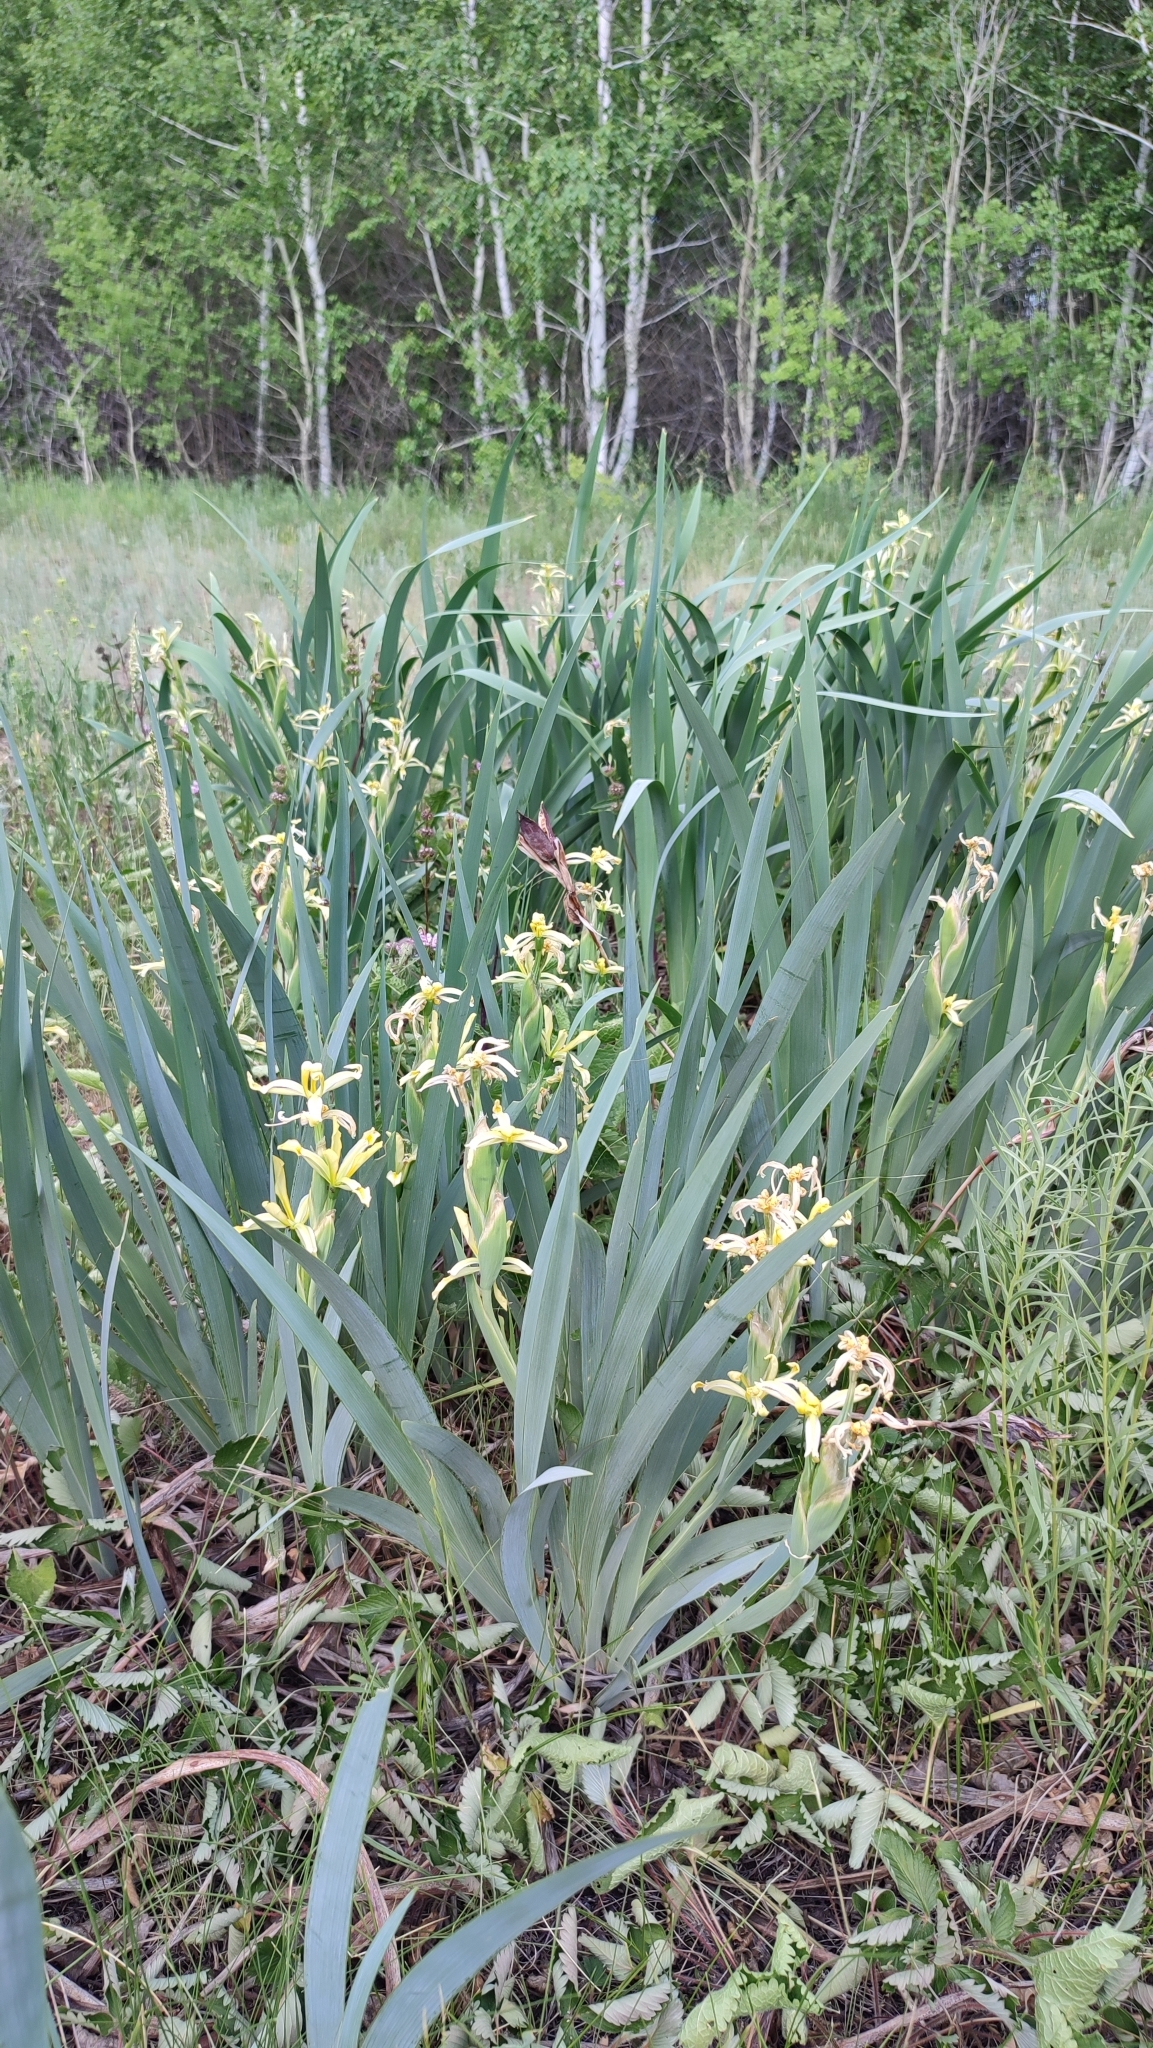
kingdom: Plantae
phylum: Tracheophyta
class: Liliopsida
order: Asparagales
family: Iridaceae
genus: Iris
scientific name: Iris halophila
